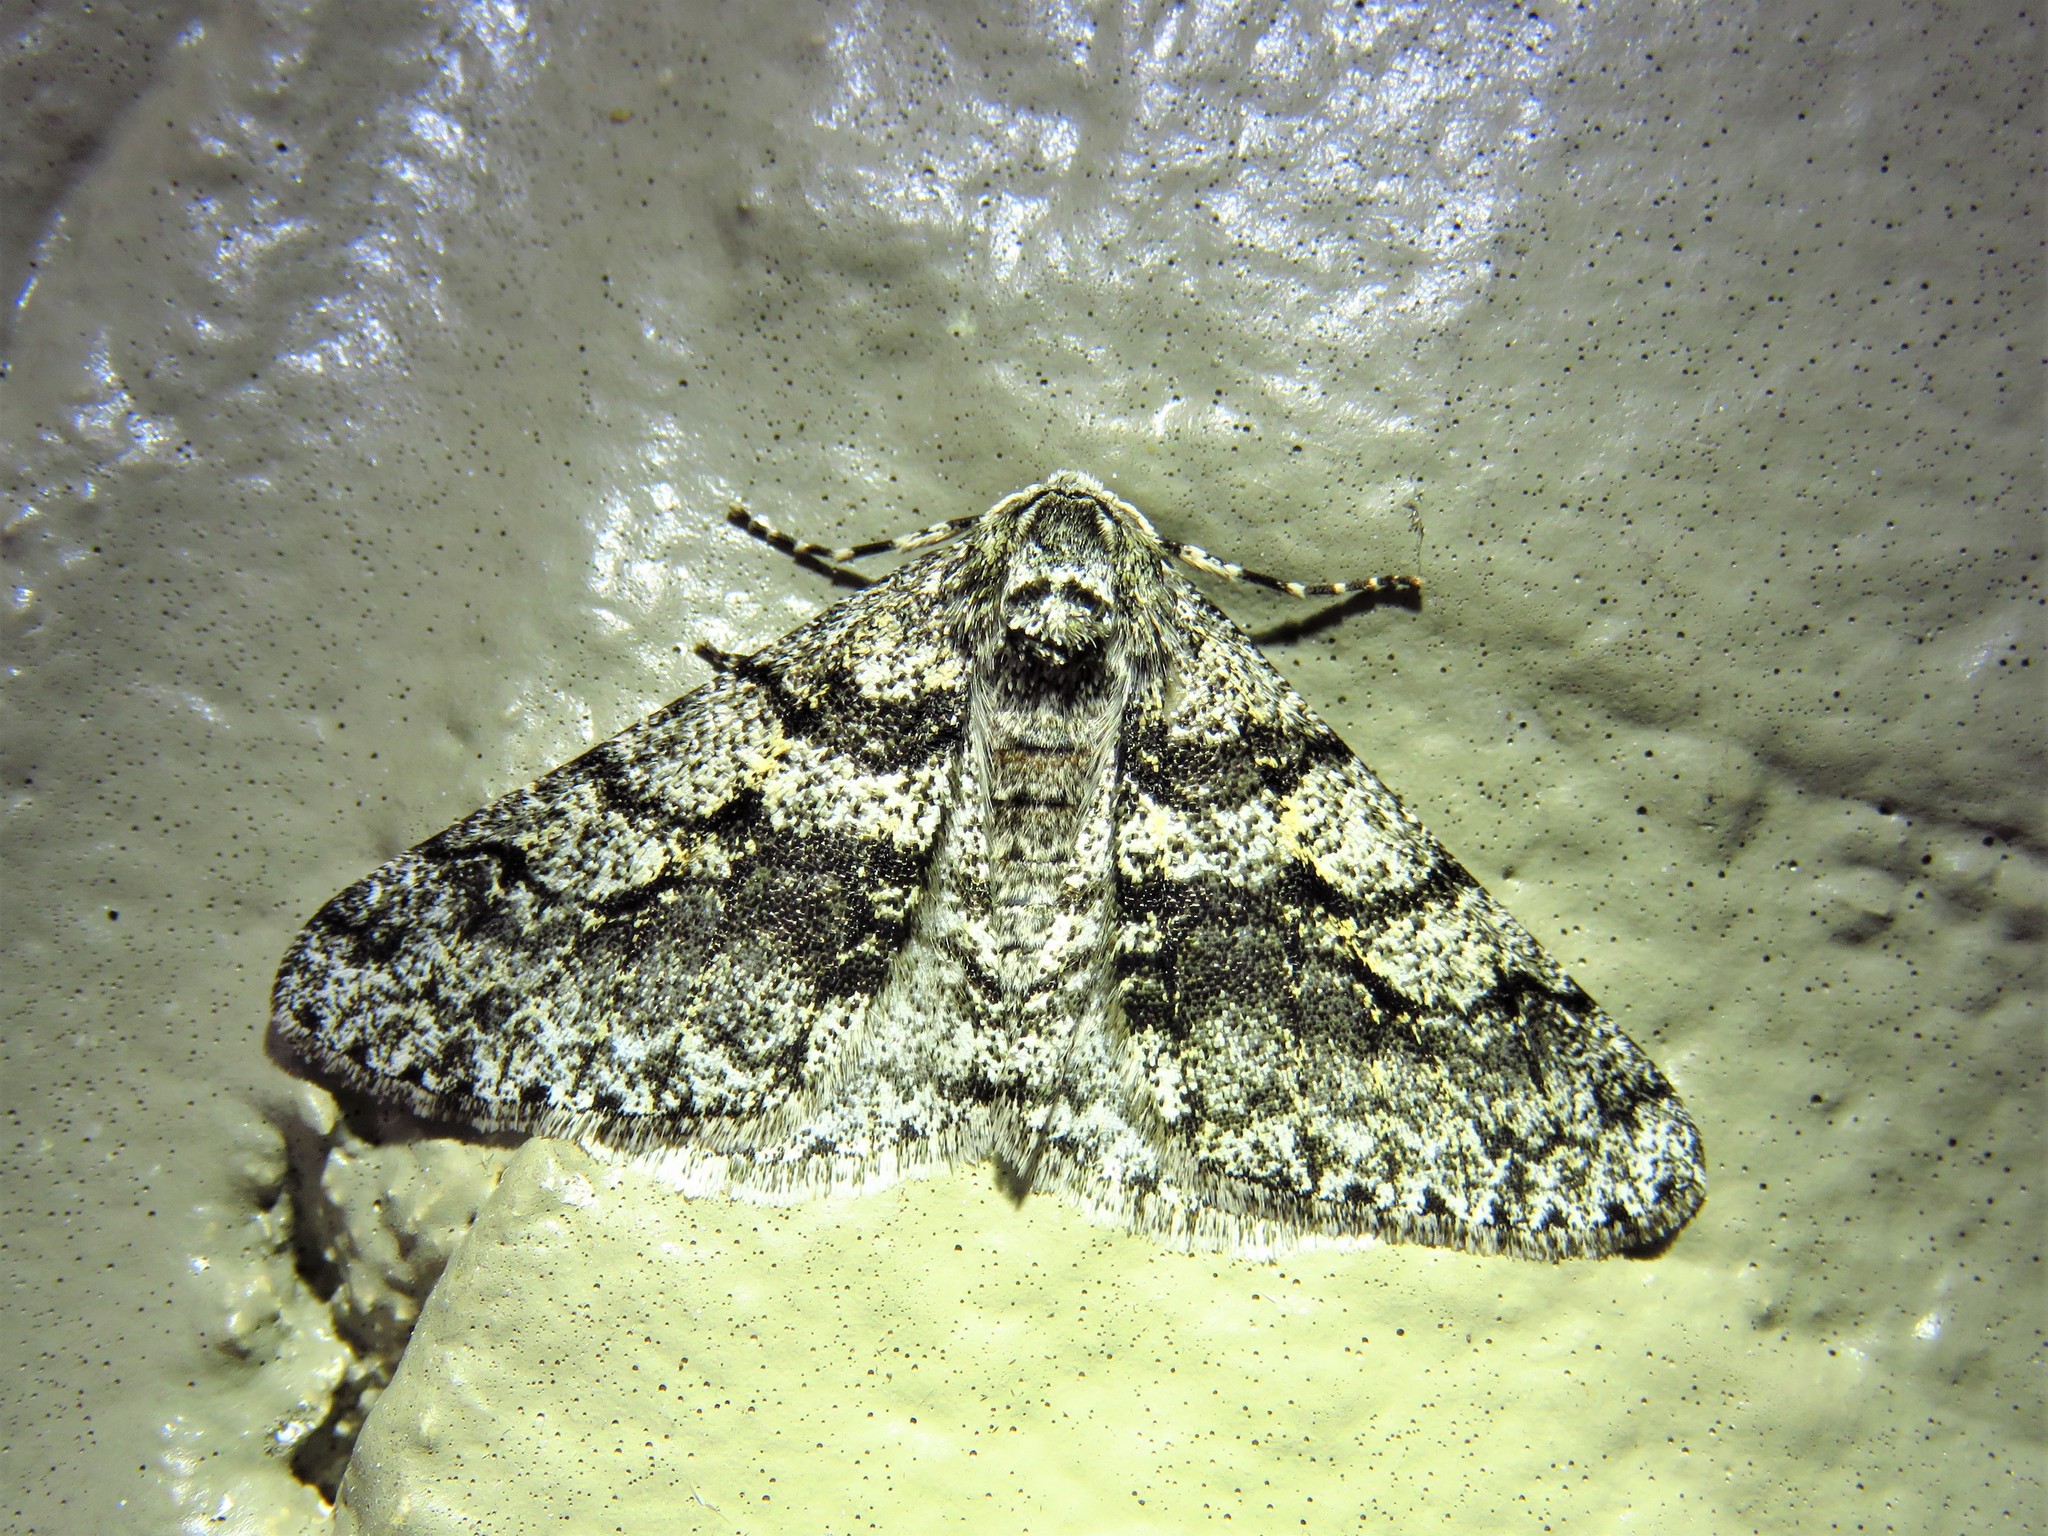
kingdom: Animalia
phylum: Arthropoda
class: Insecta
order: Lepidoptera
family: Geometridae
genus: Phigalia
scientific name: Phigalia titea
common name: Spiny looper
